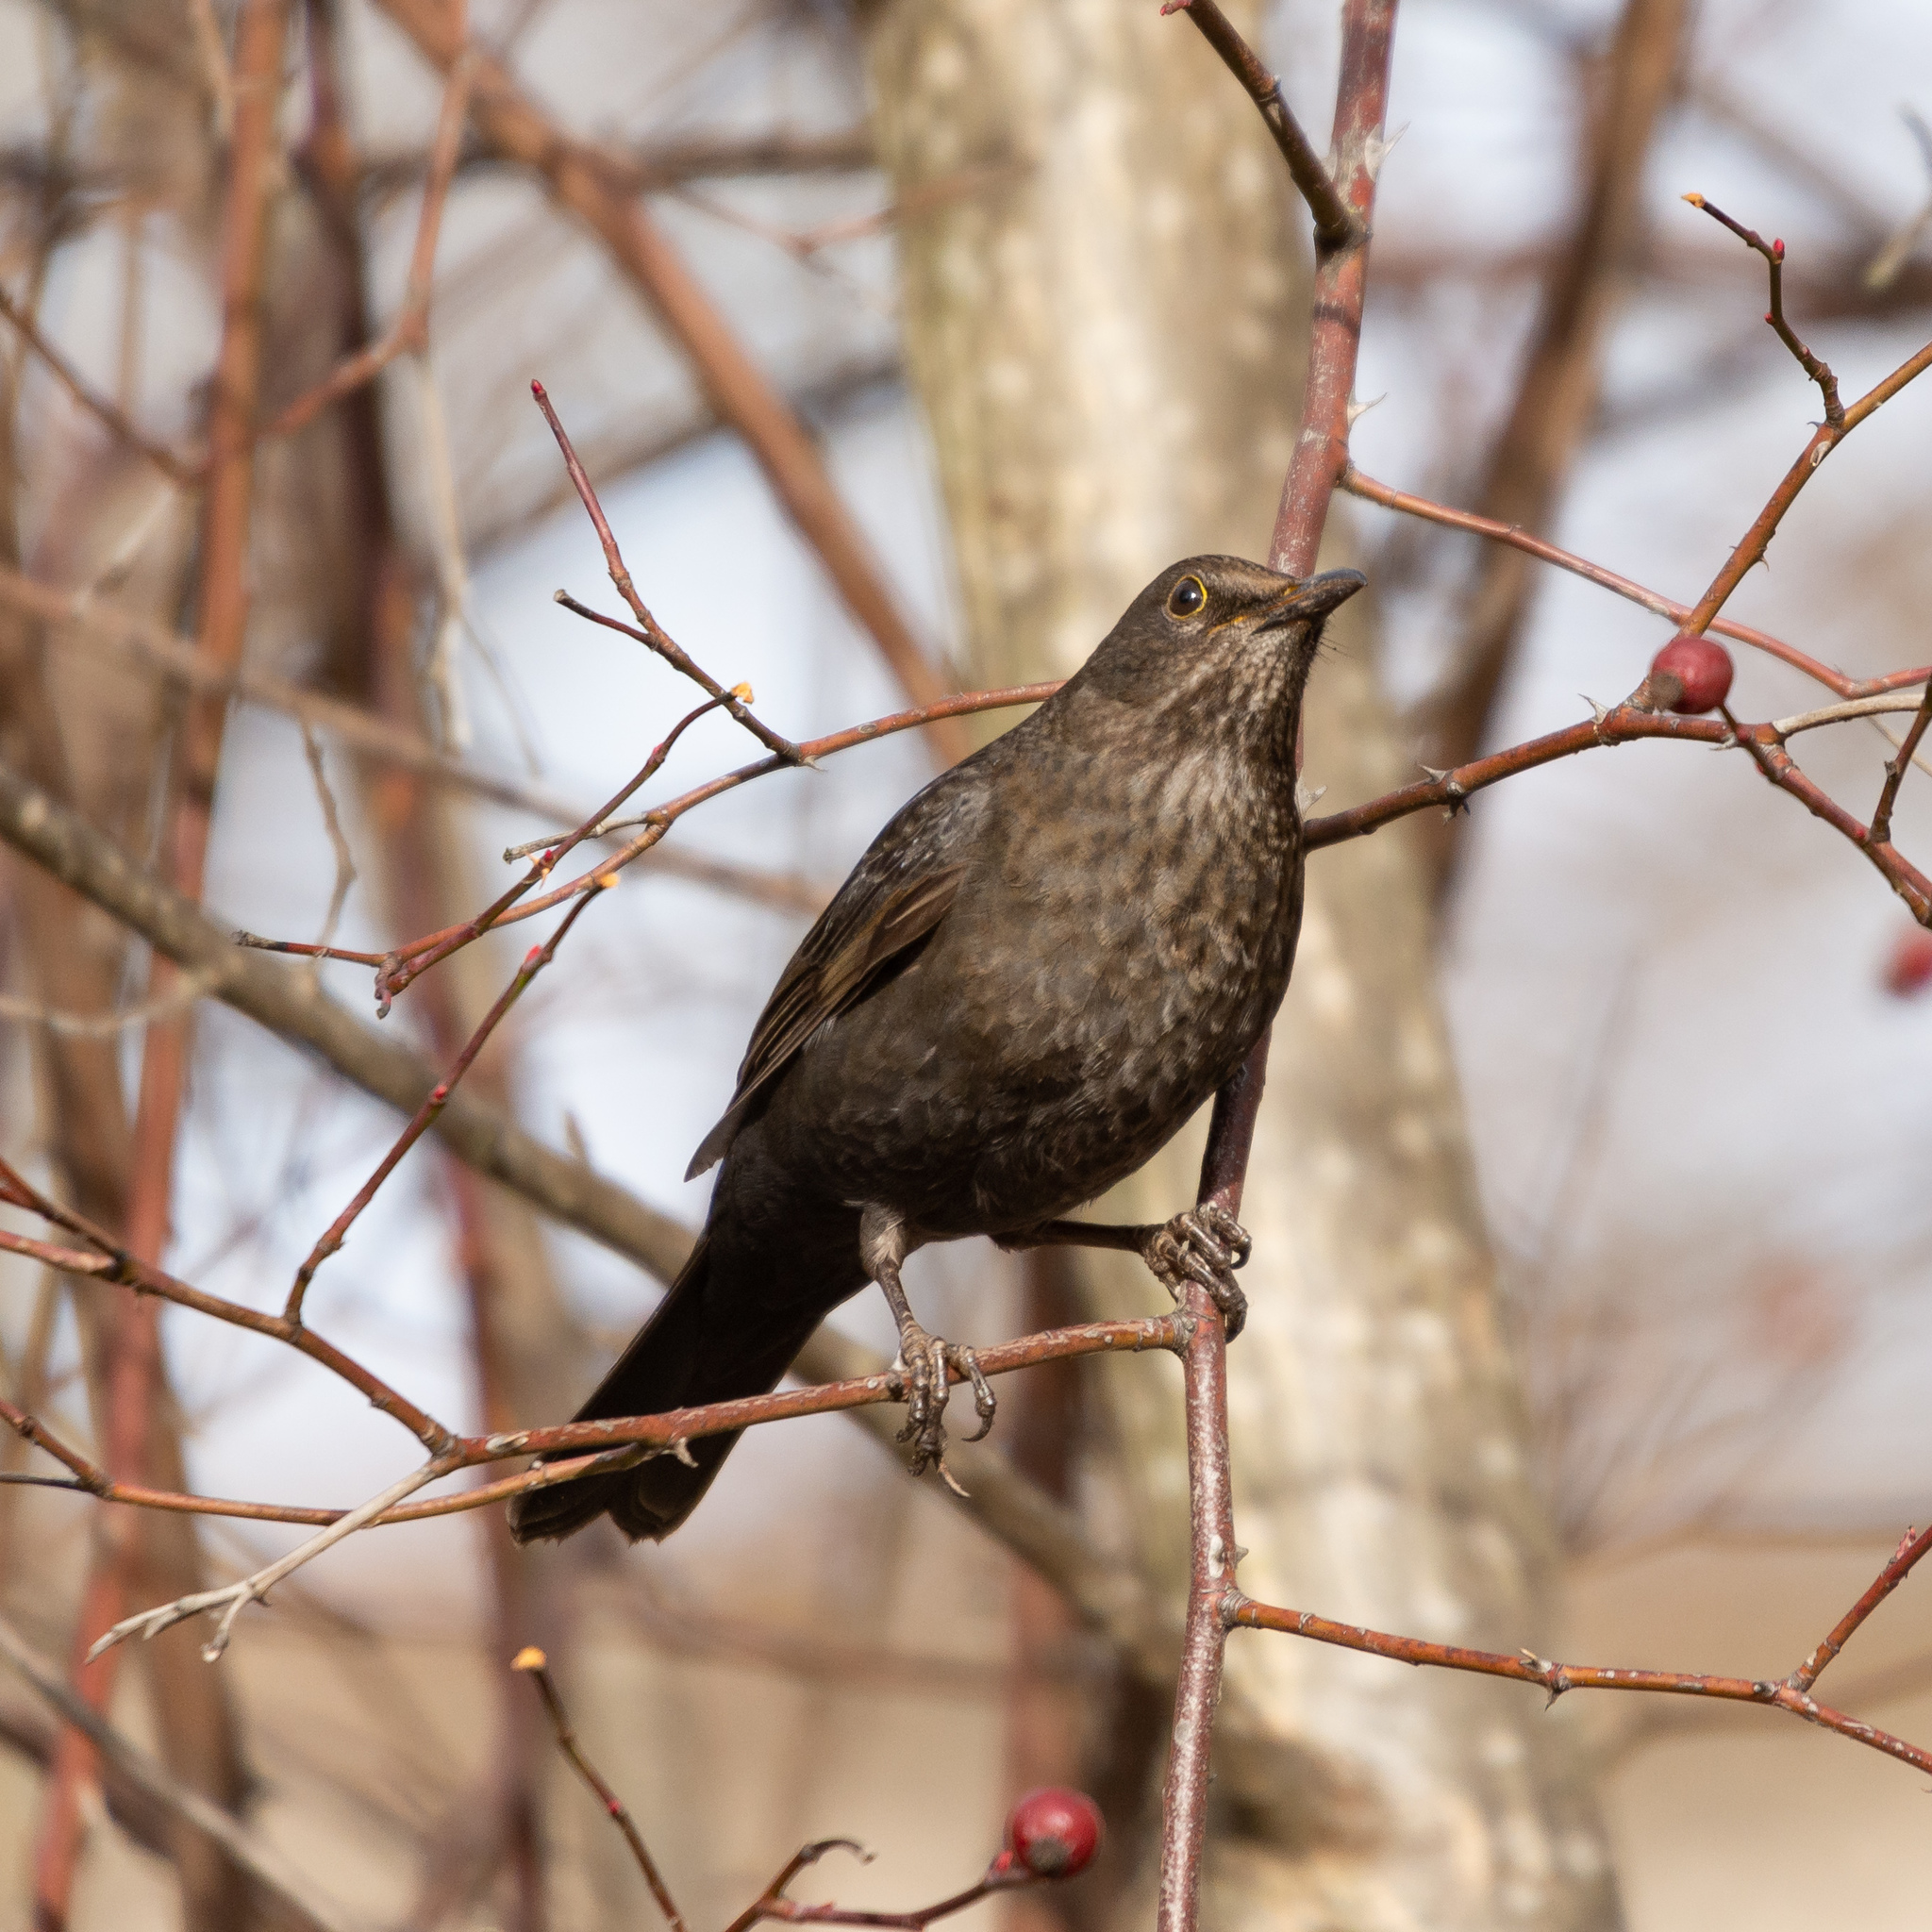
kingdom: Animalia
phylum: Chordata
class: Aves
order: Passeriformes
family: Turdidae
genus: Turdus
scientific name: Turdus merula
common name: Common blackbird
